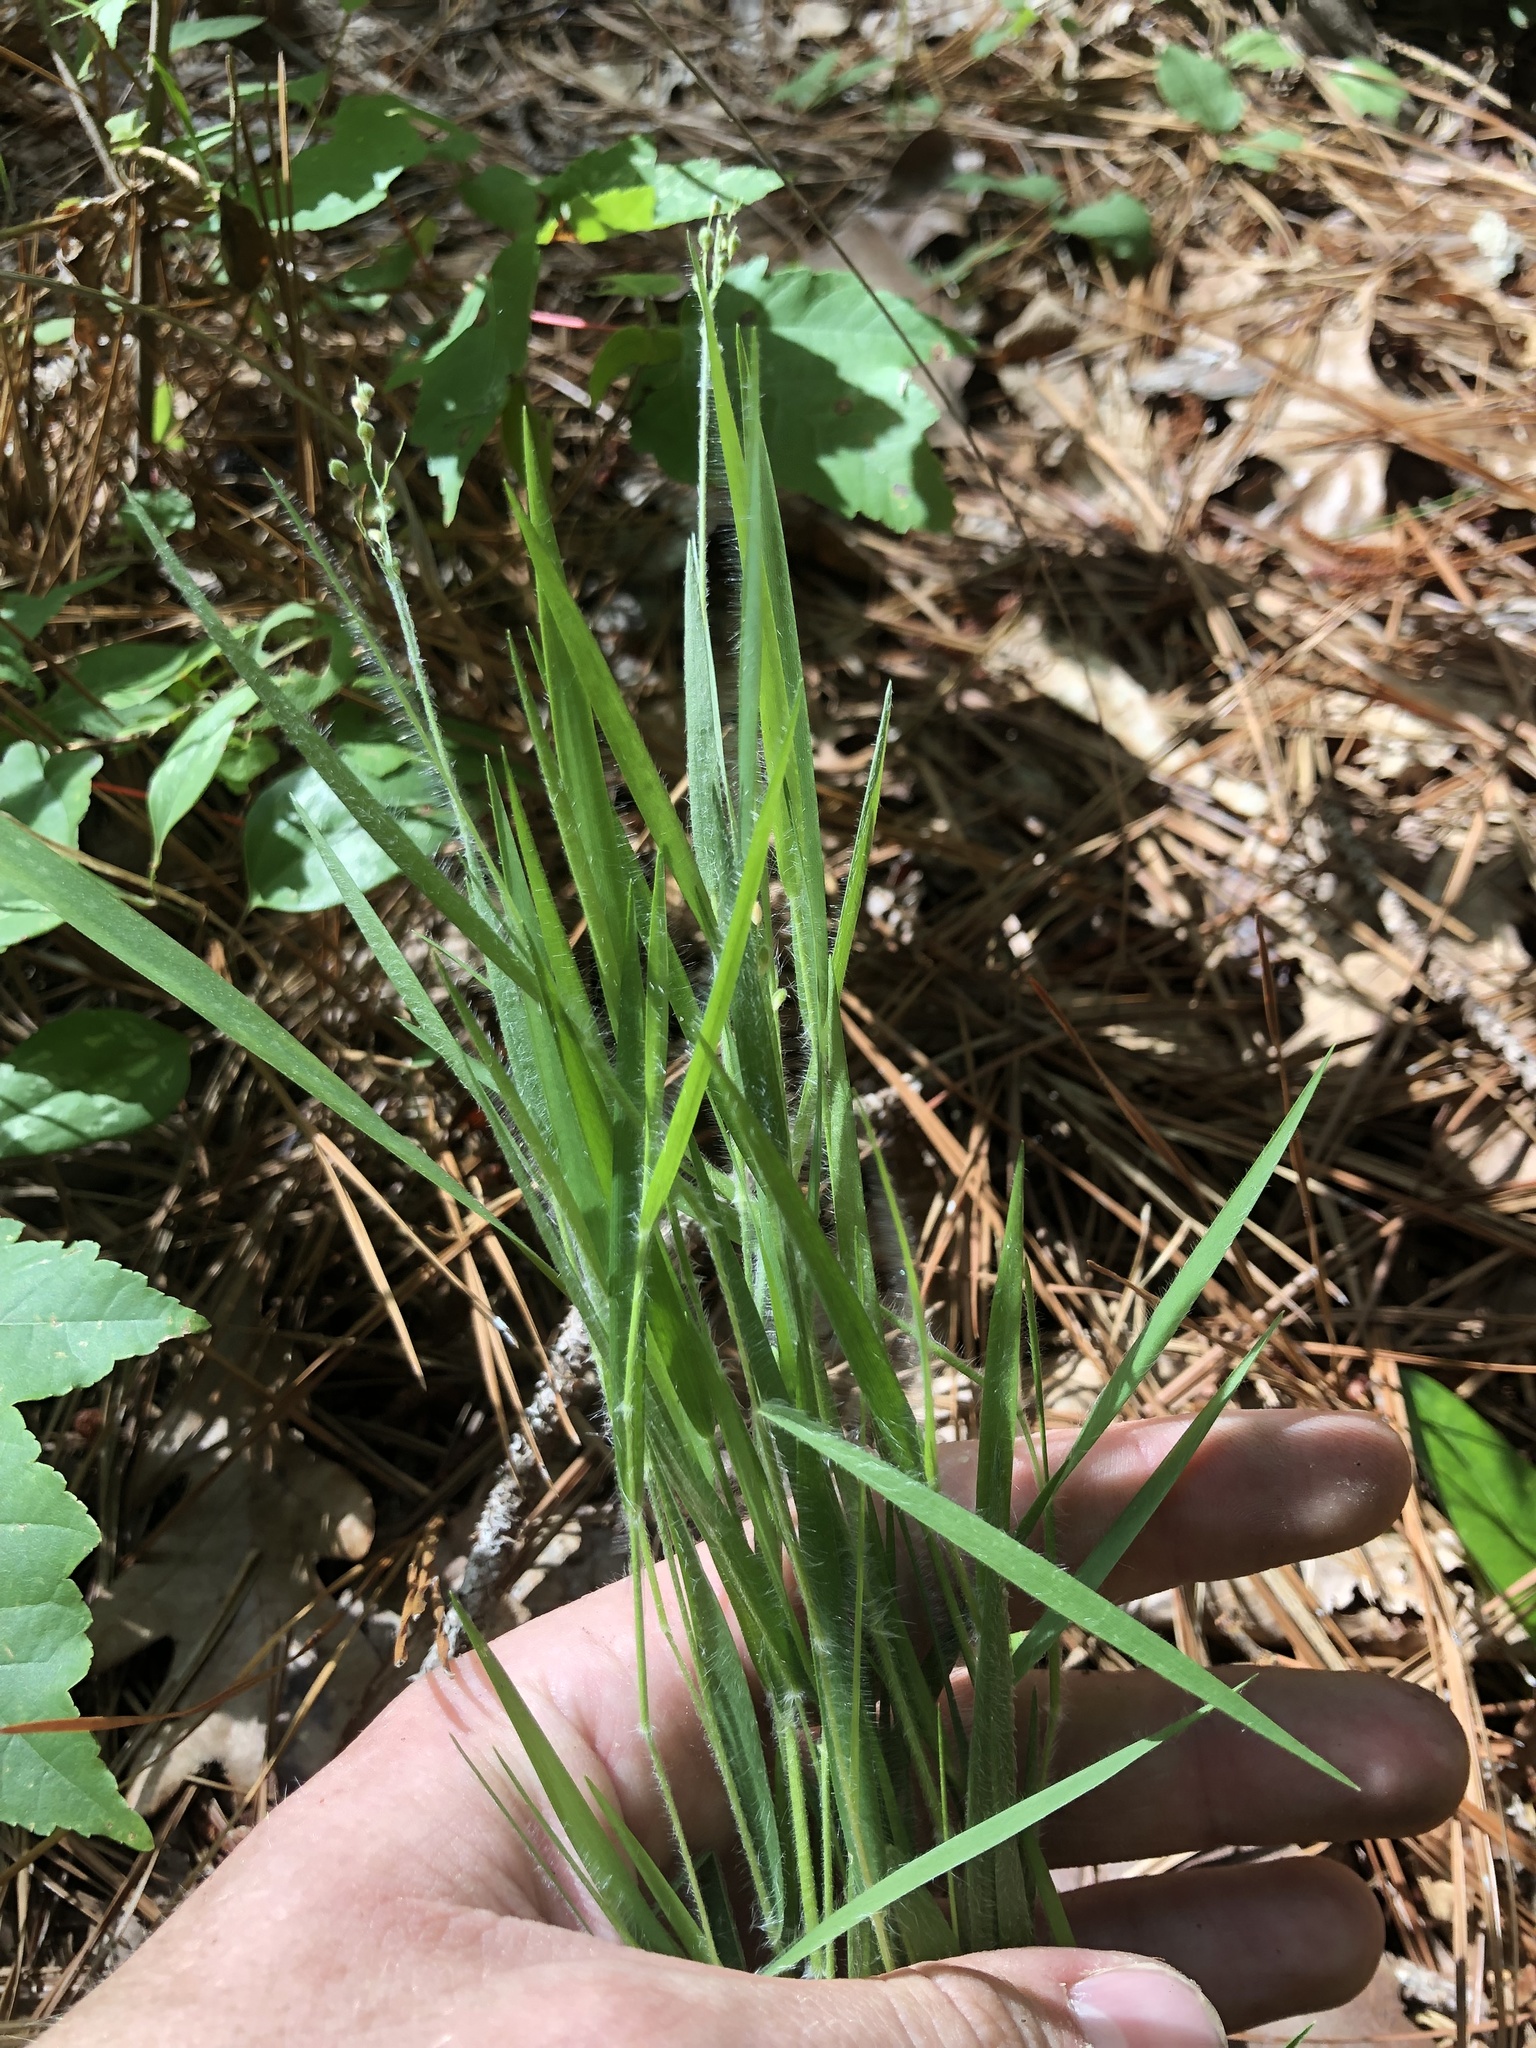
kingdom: Plantae
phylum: Tracheophyta
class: Liliopsida
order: Poales
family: Poaceae
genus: Dichanthelium
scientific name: Dichanthelium consanguineum
